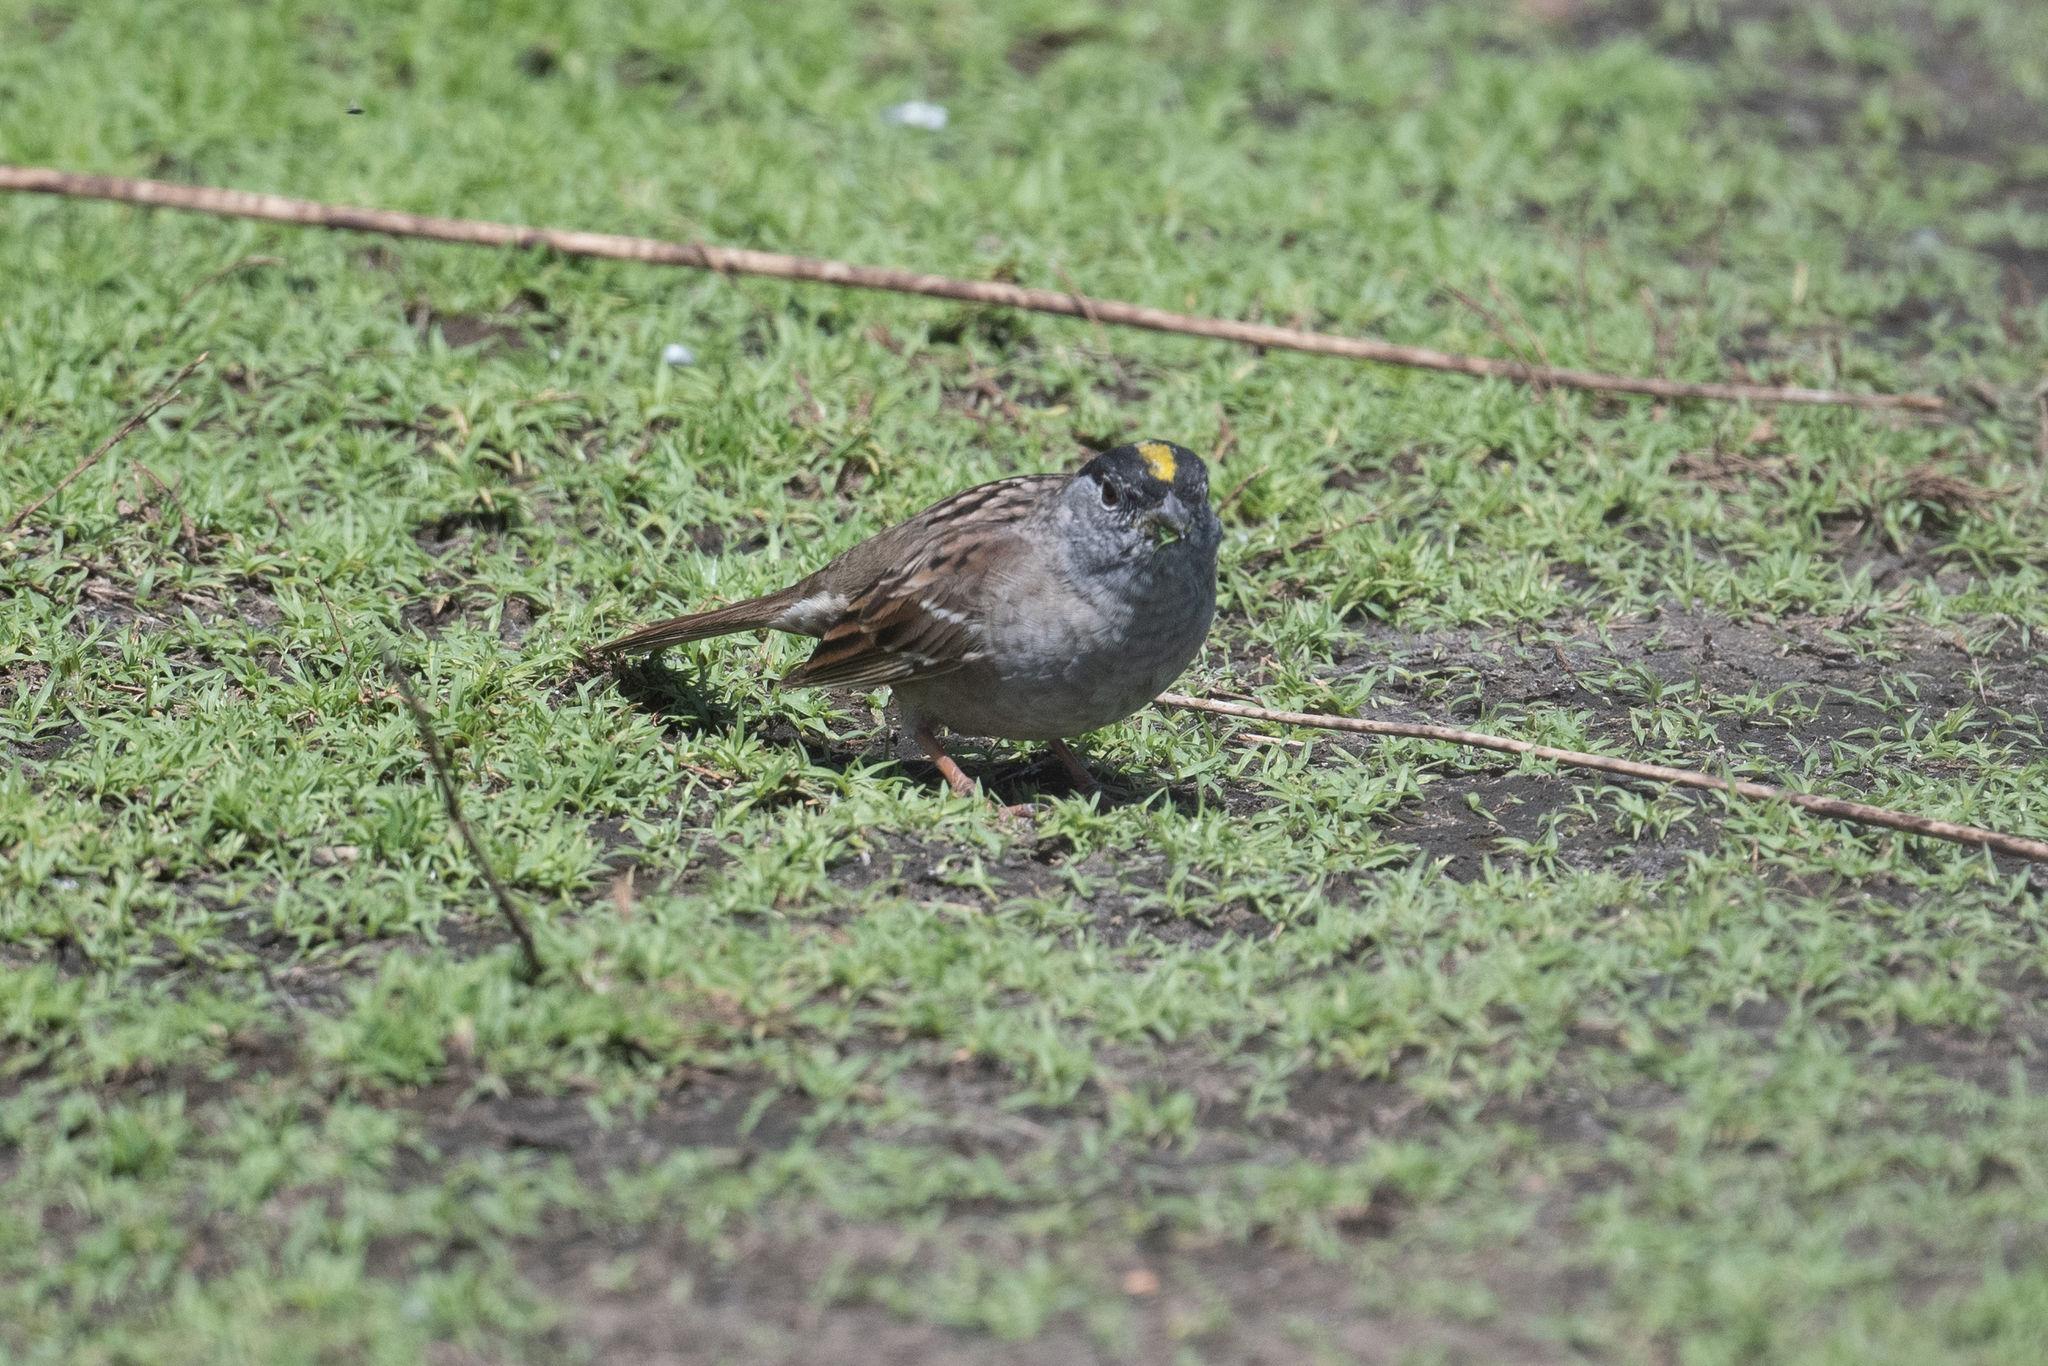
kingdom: Animalia
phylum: Chordata
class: Aves
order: Passeriformes
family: Passerellidae
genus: Zonotrichia
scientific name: Zonotrichia atricapilla
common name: Golden-crowned sparrow
